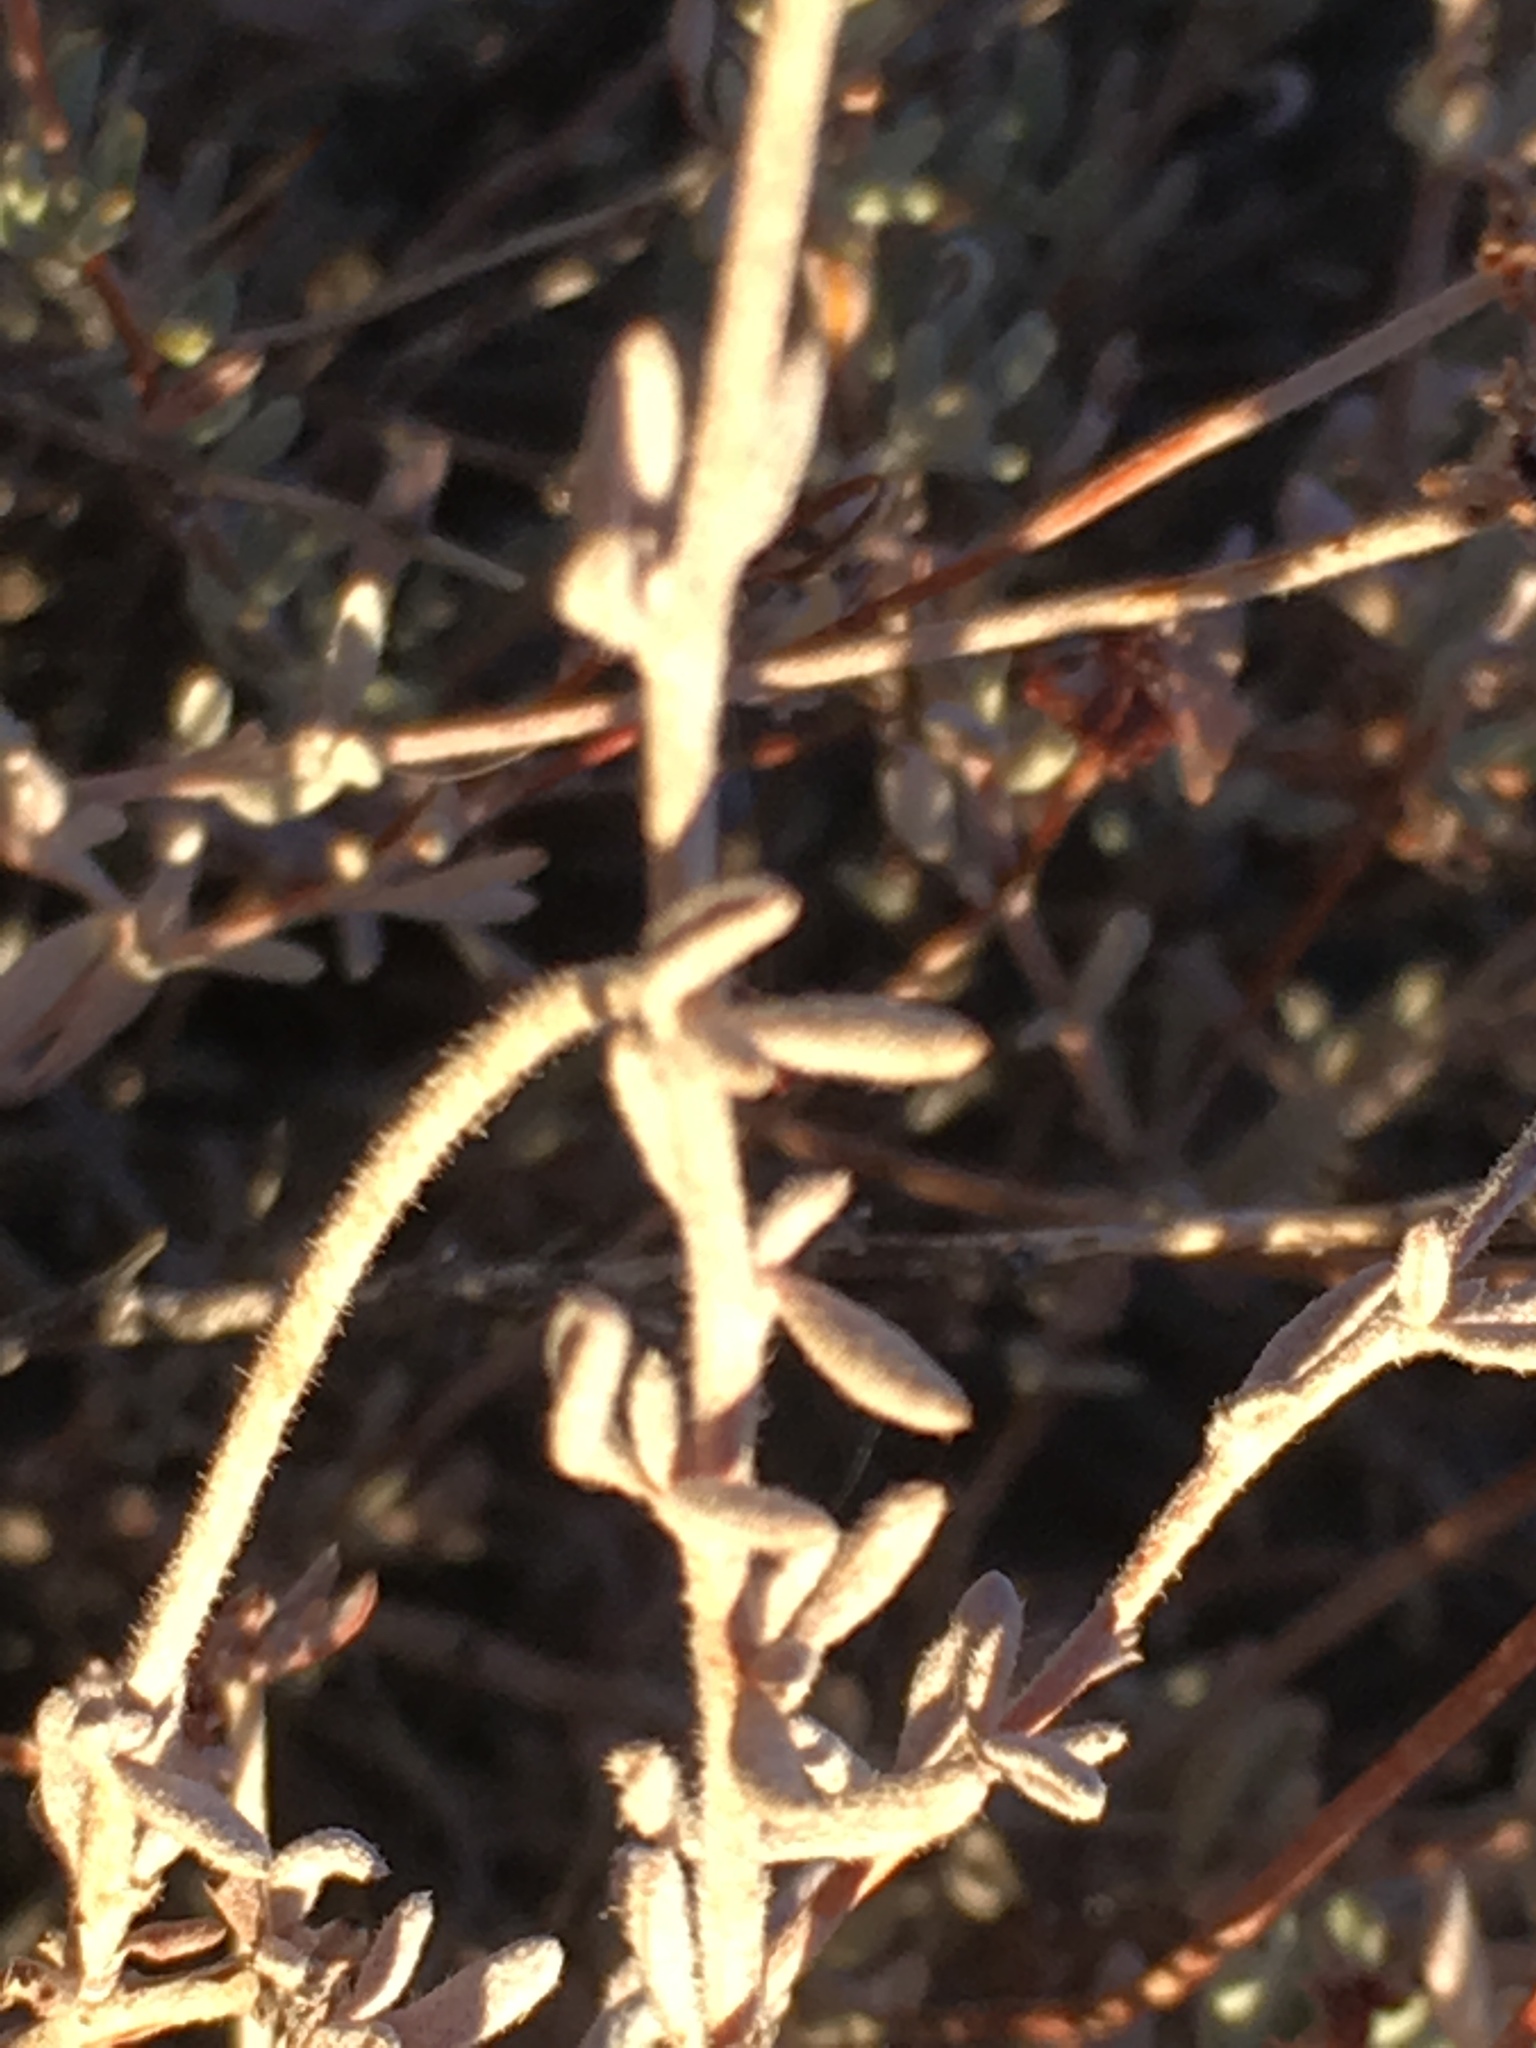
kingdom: Plantae
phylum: Tracheophyta
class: Magnoliopsida
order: Caryophyllales
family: Polygonaceae
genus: Eriogonum
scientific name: Eriogonum fasciculatum
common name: California wild buckwheat
